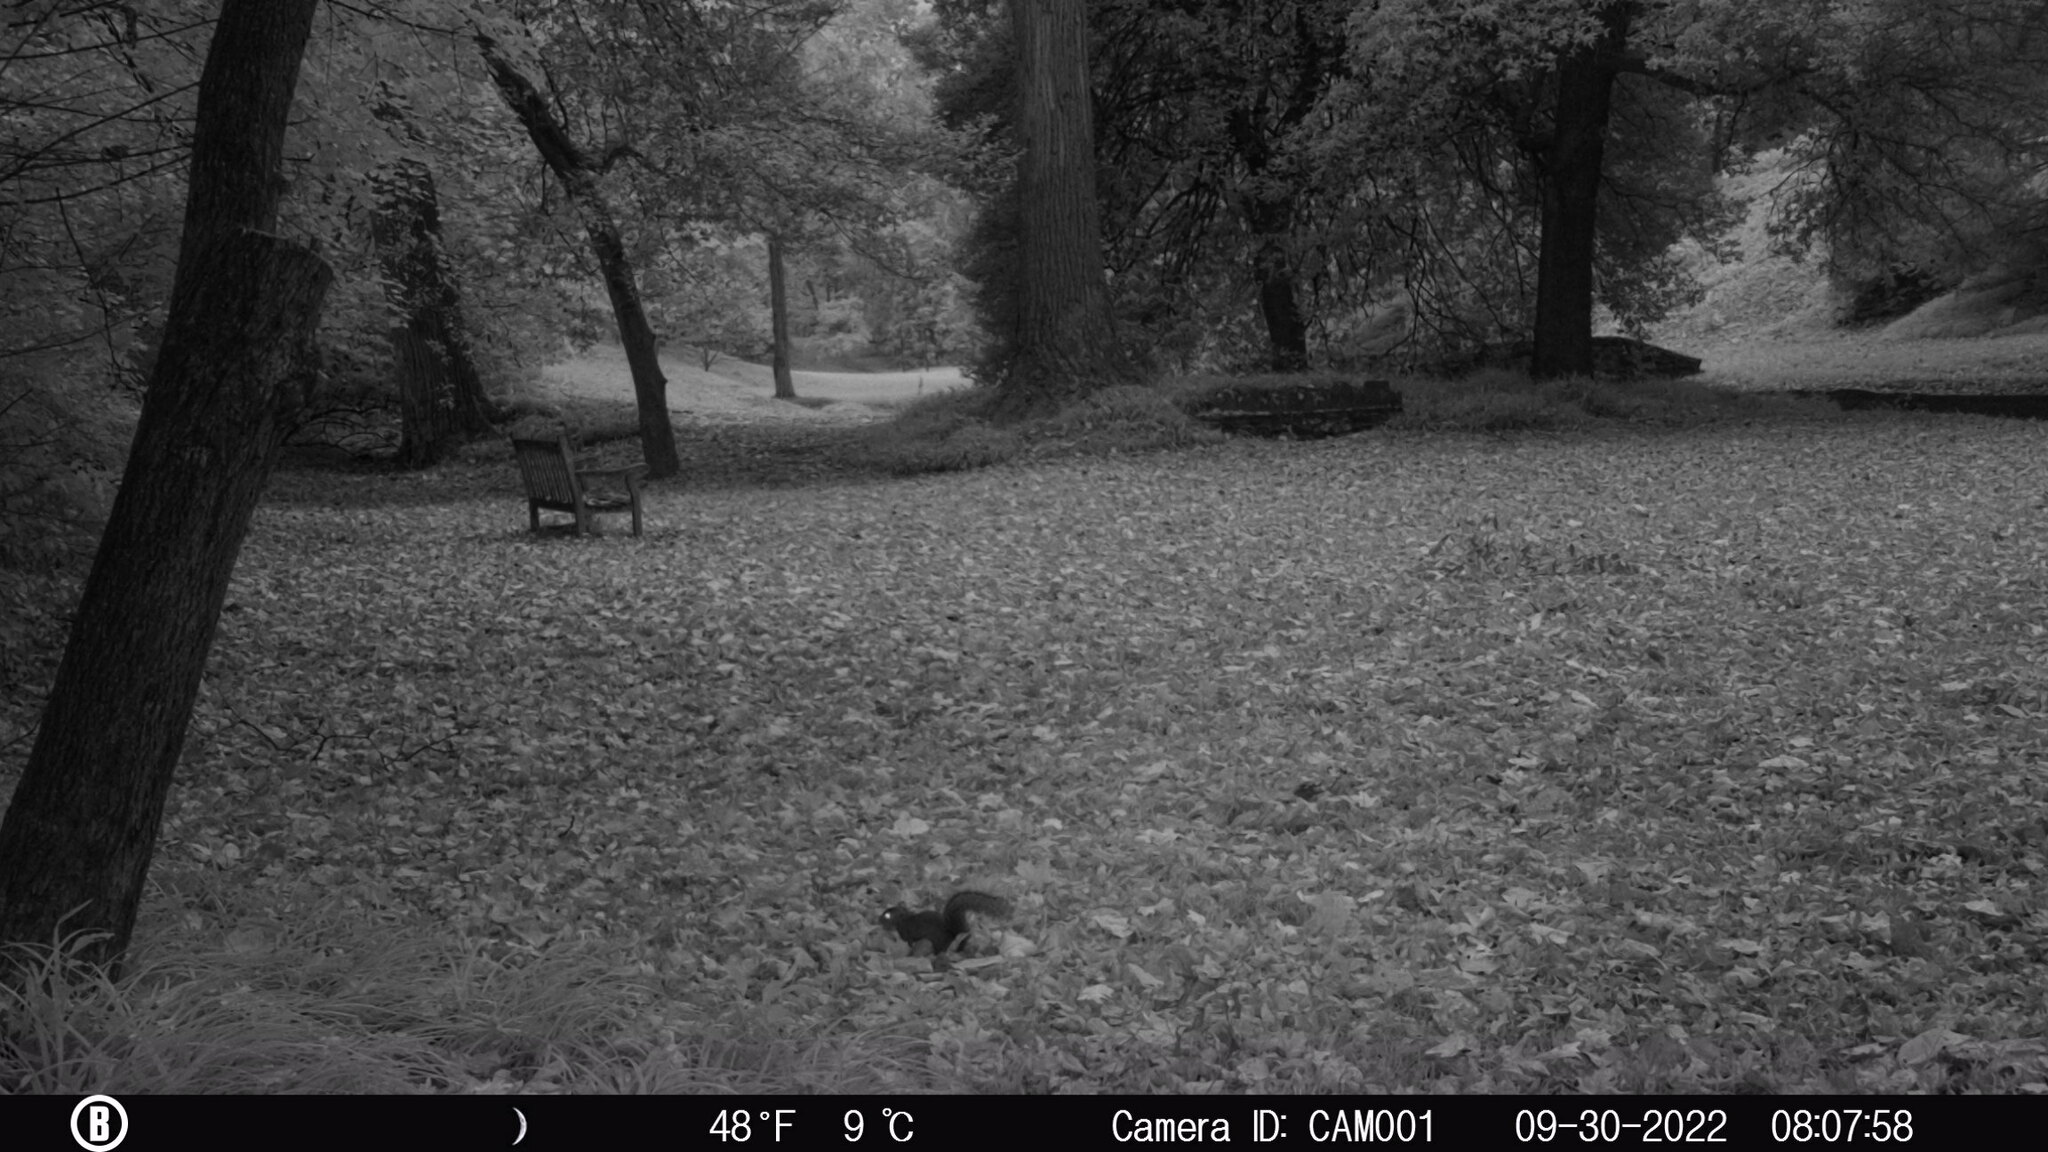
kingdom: Animalia
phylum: Chordata
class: Mammalia
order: Rodentia
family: Sciuridae
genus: Sciurus
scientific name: Sciurus carolinensis
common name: Eastern gray squirrel
